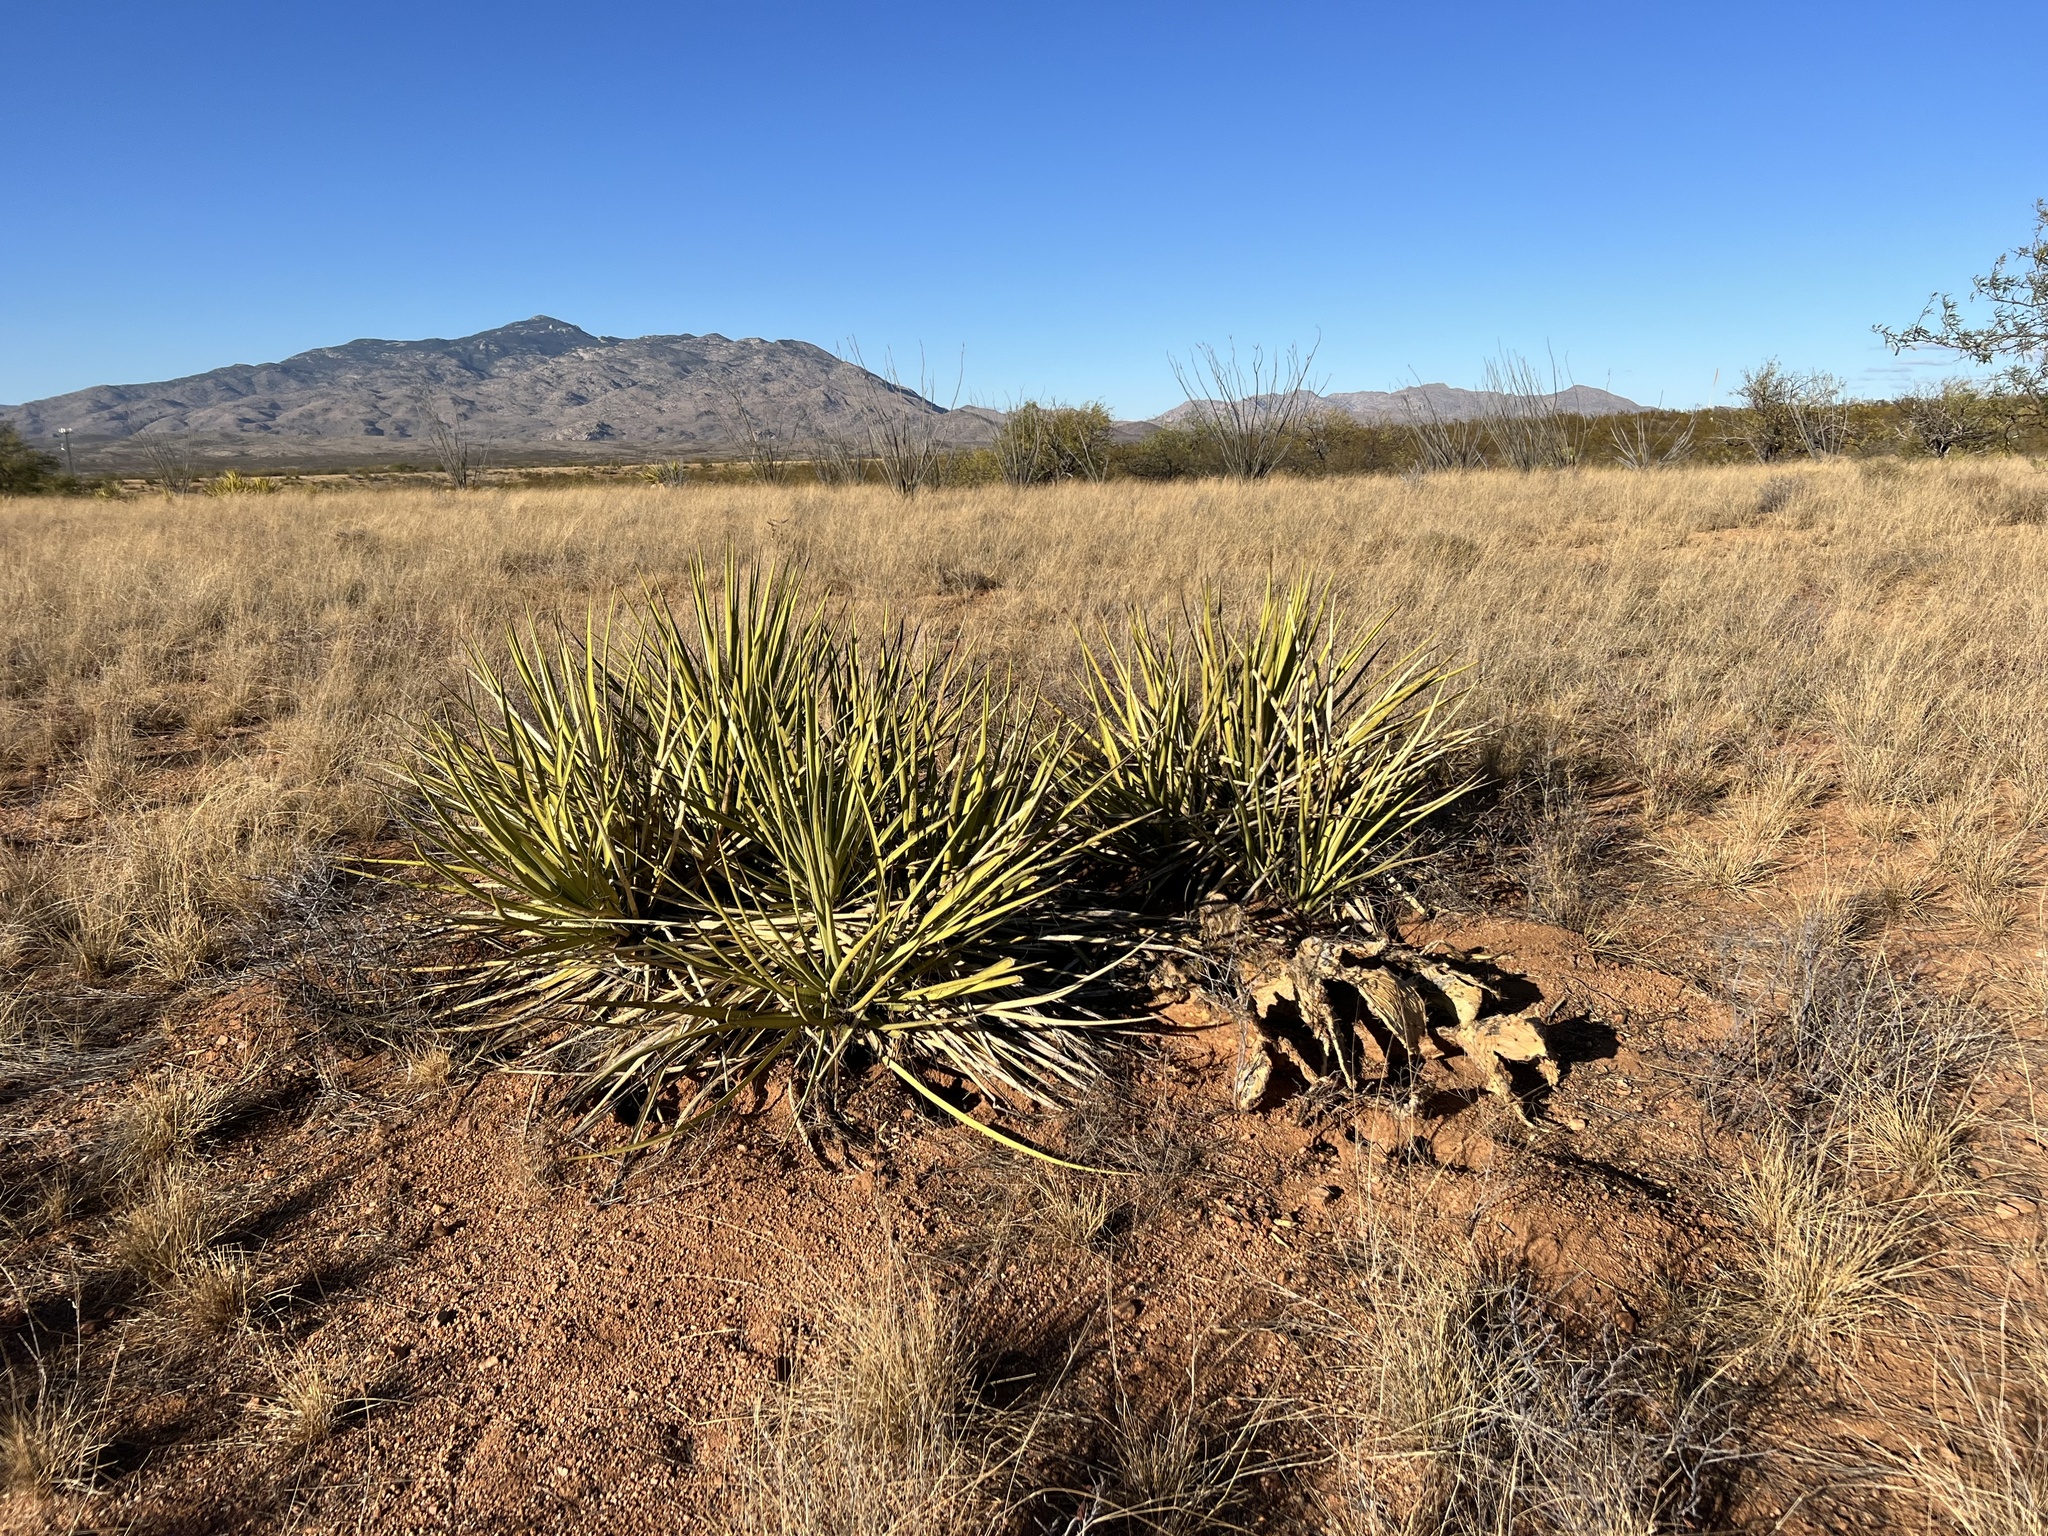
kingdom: Plantae
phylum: Tracheophyta
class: Liliopsida
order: Asparagales
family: Asparagaceae
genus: Yucca
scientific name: Yucca baccata
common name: Banana yucca
